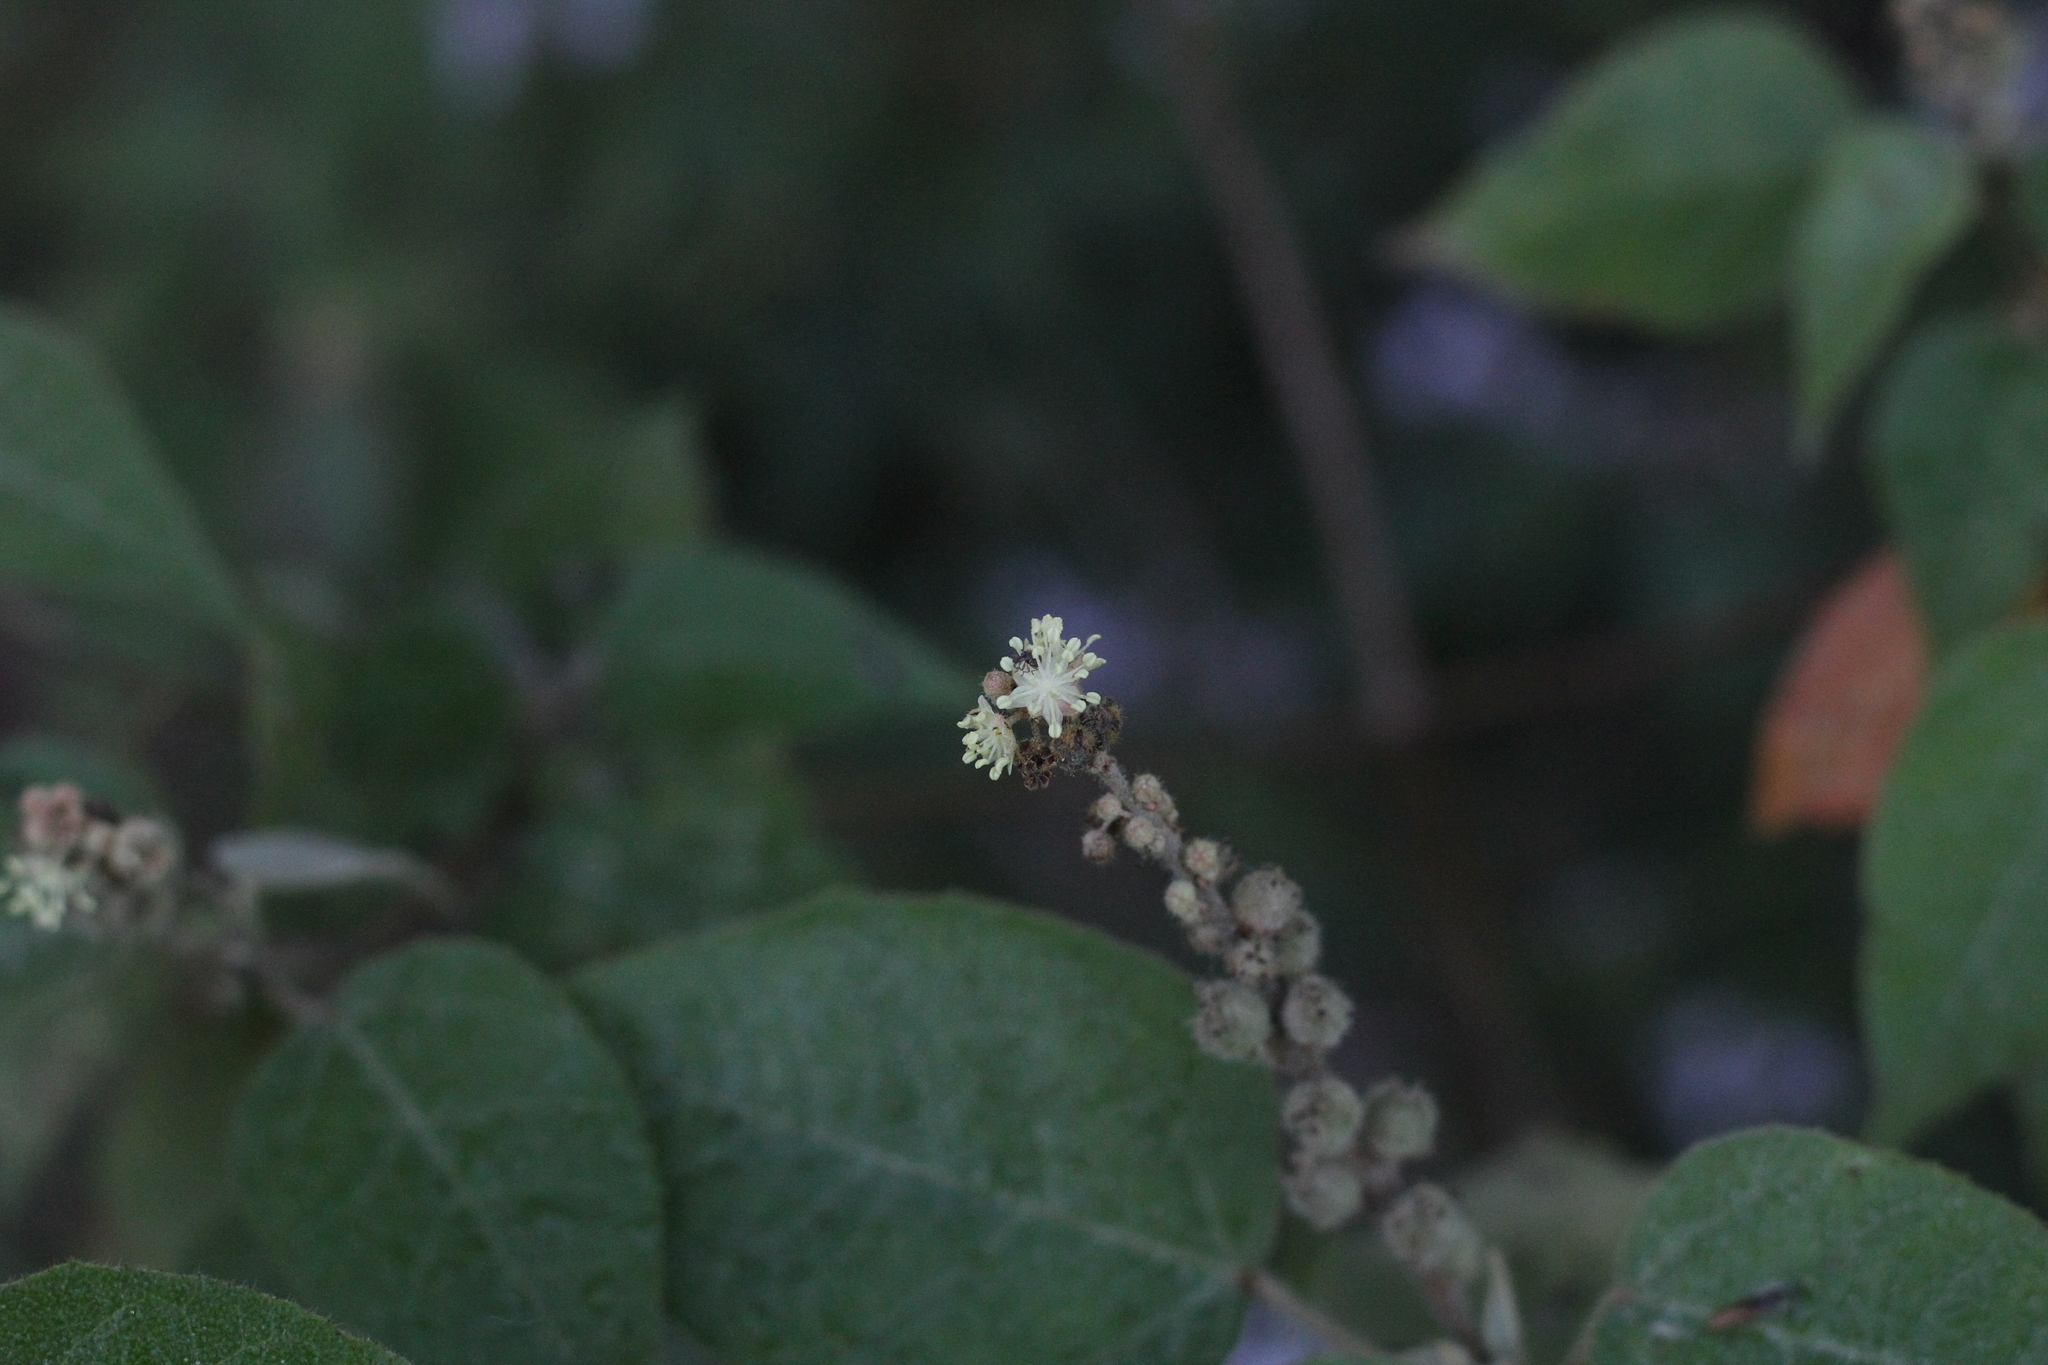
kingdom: Plantae
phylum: Tracheophyta
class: Magnoliopsida
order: Malpighiales
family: Euphorbiaceae
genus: Croton
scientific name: Croton lachnostachyus
